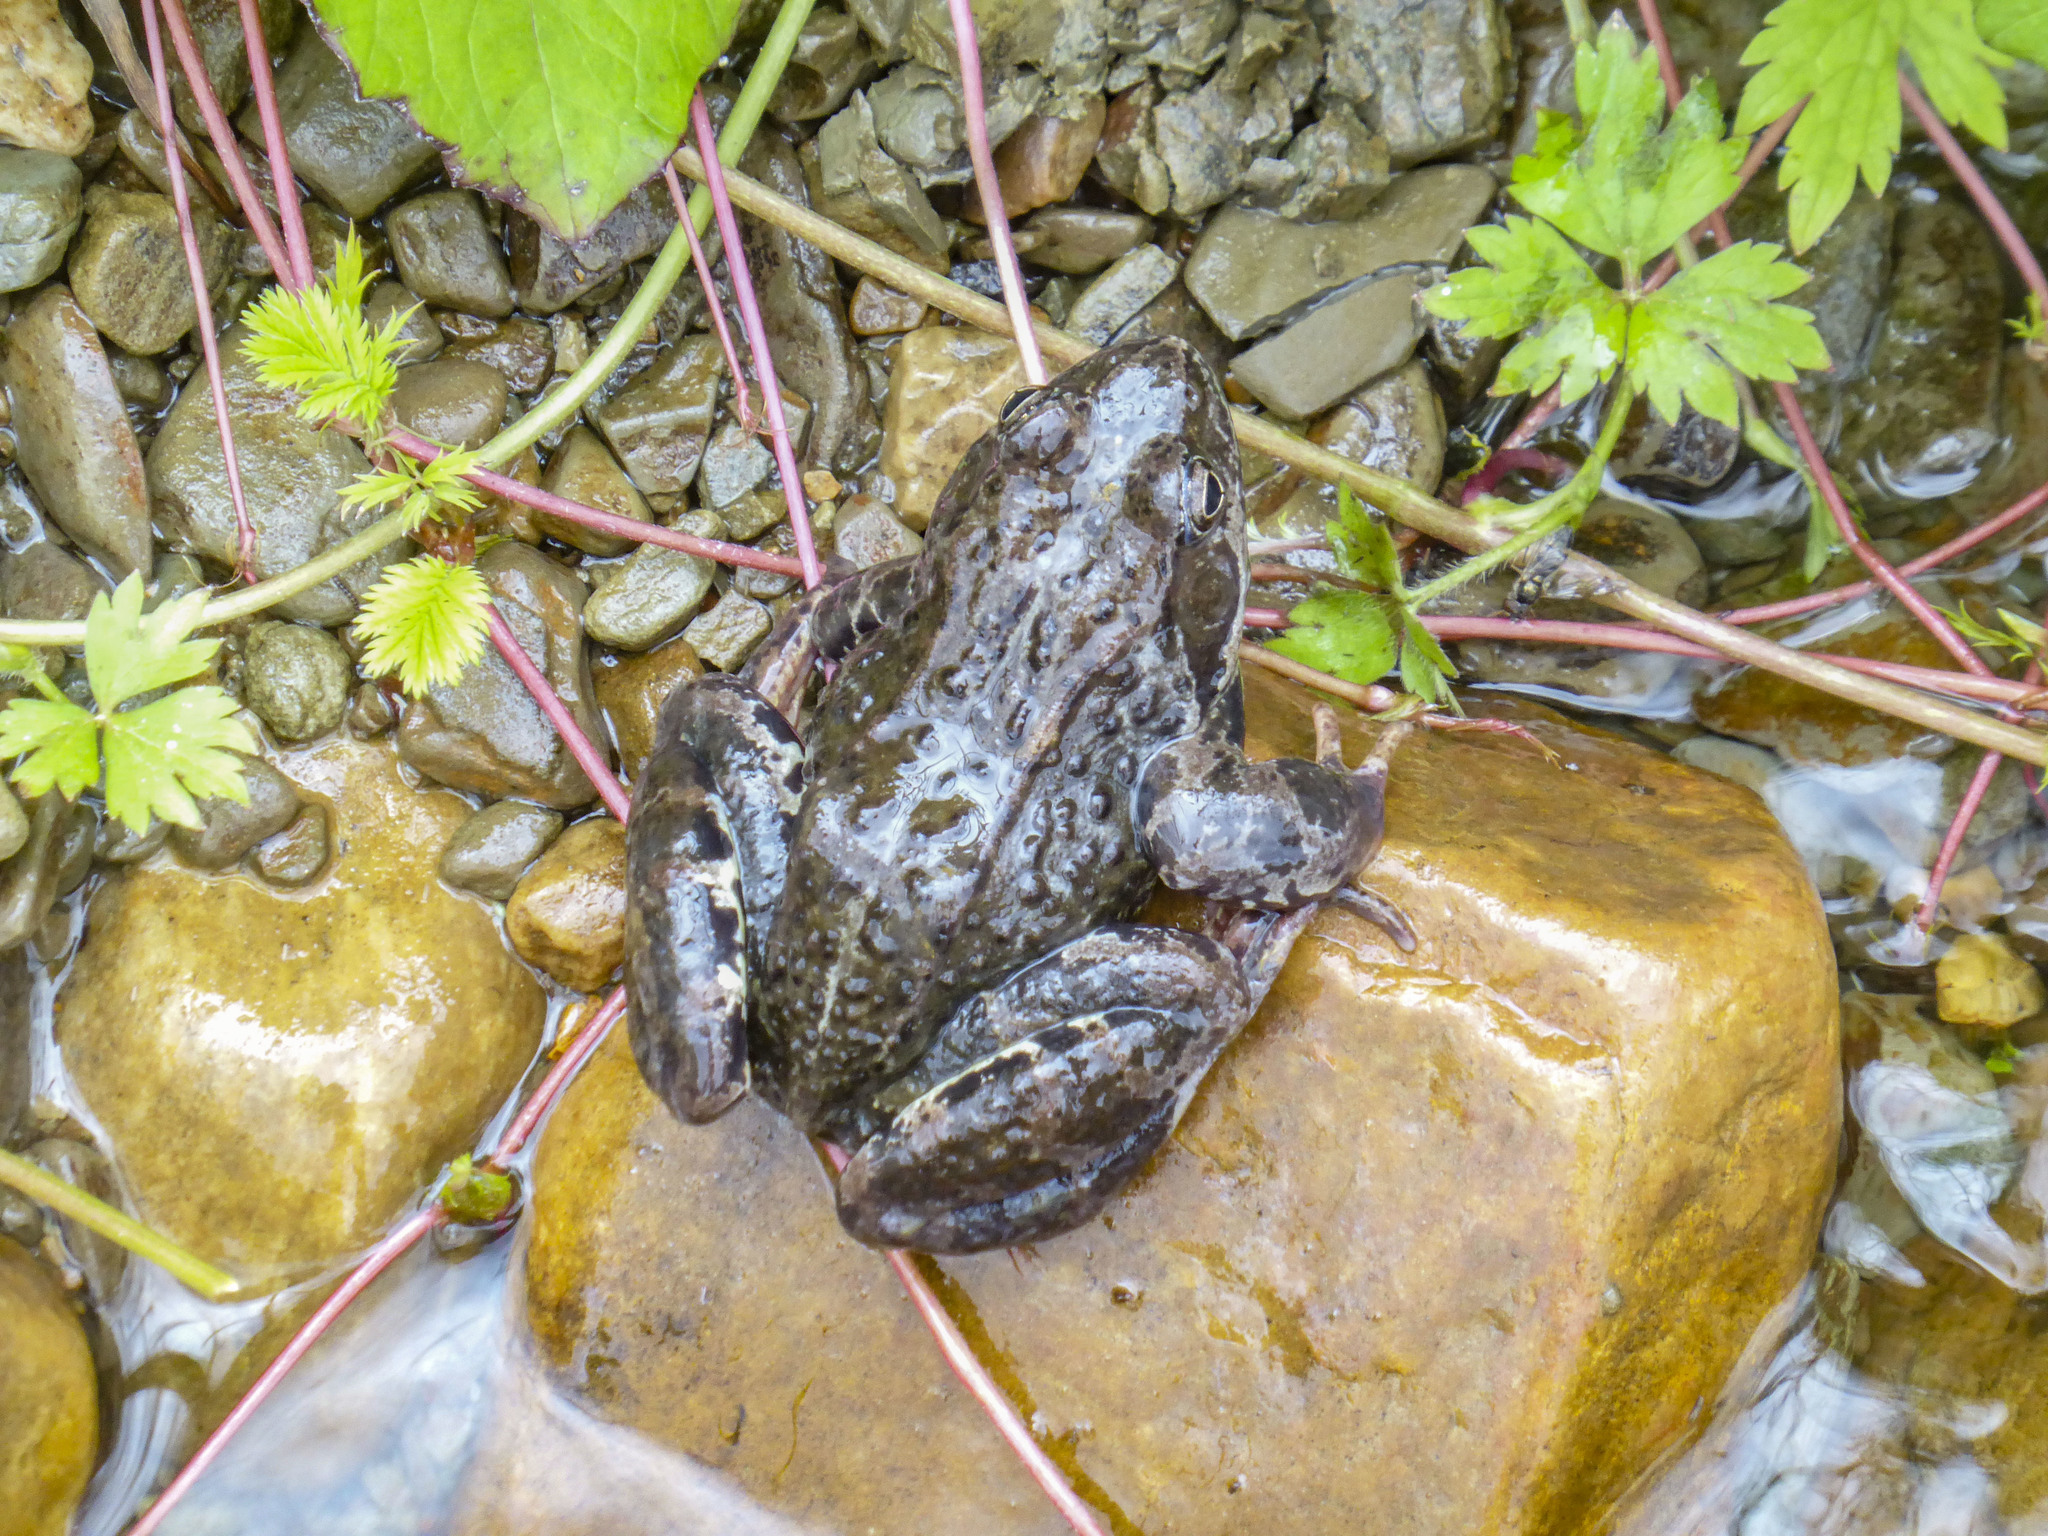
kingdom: Animalia
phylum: Chordata
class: Amphibia
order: Anura
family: Ranidae
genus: Rana
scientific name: Rana temporaria
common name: Common frog
